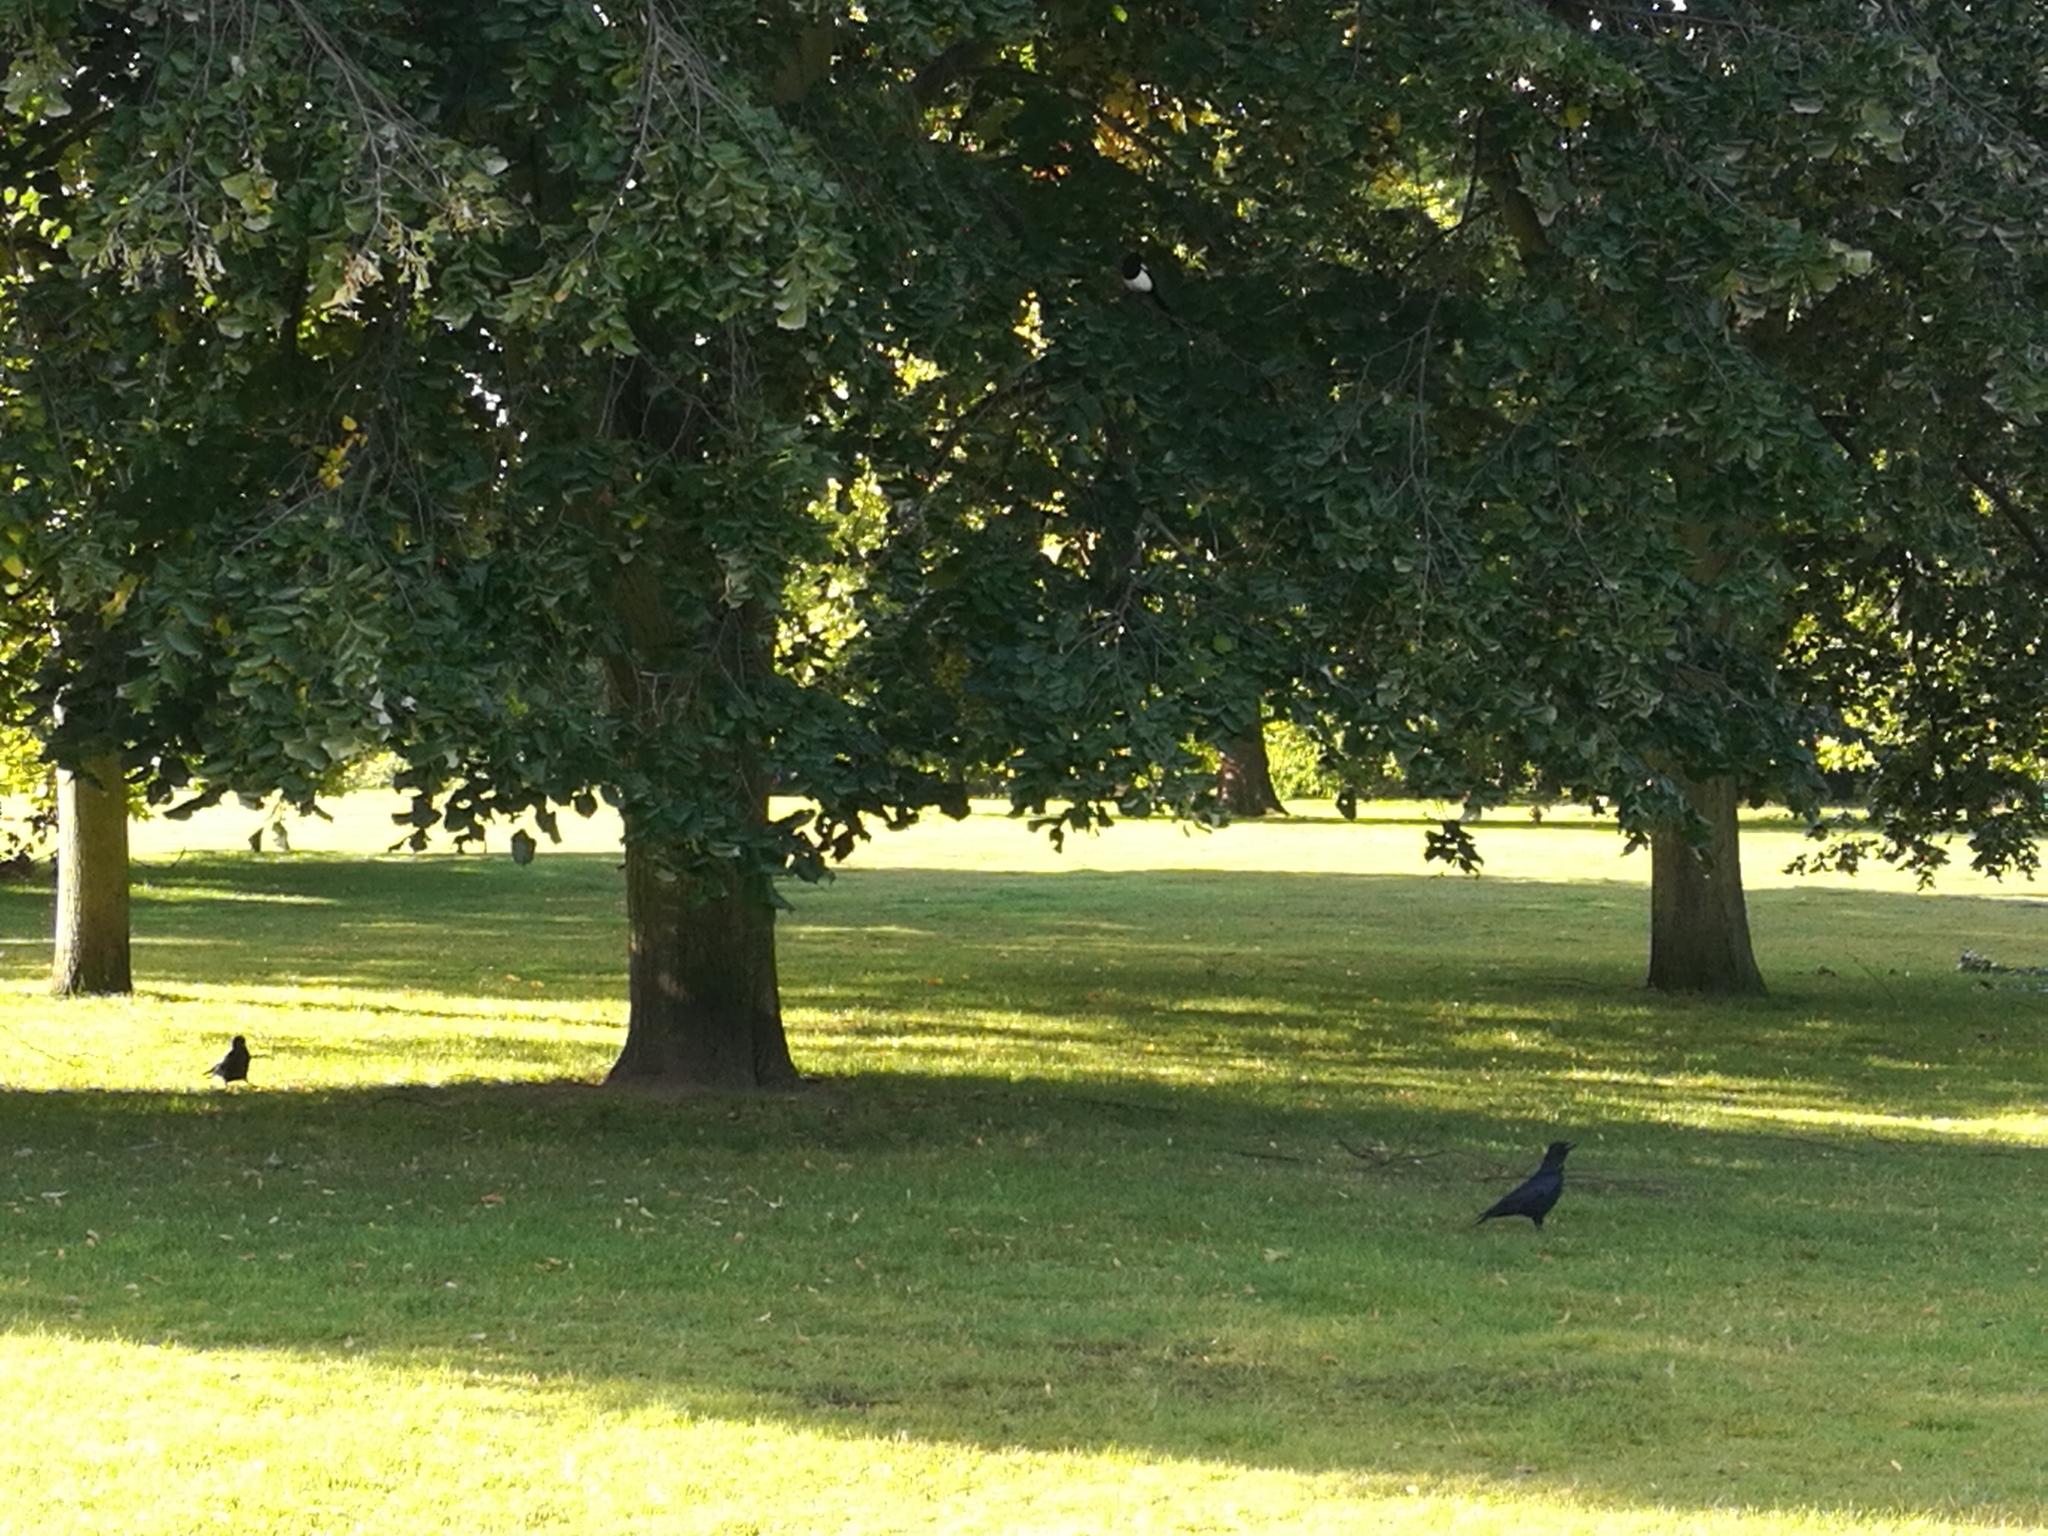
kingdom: Animalia
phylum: Chordata
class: Aves
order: Passeriformes
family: Corvidae
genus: Corvus
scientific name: Corvus corone
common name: Carrion crow
